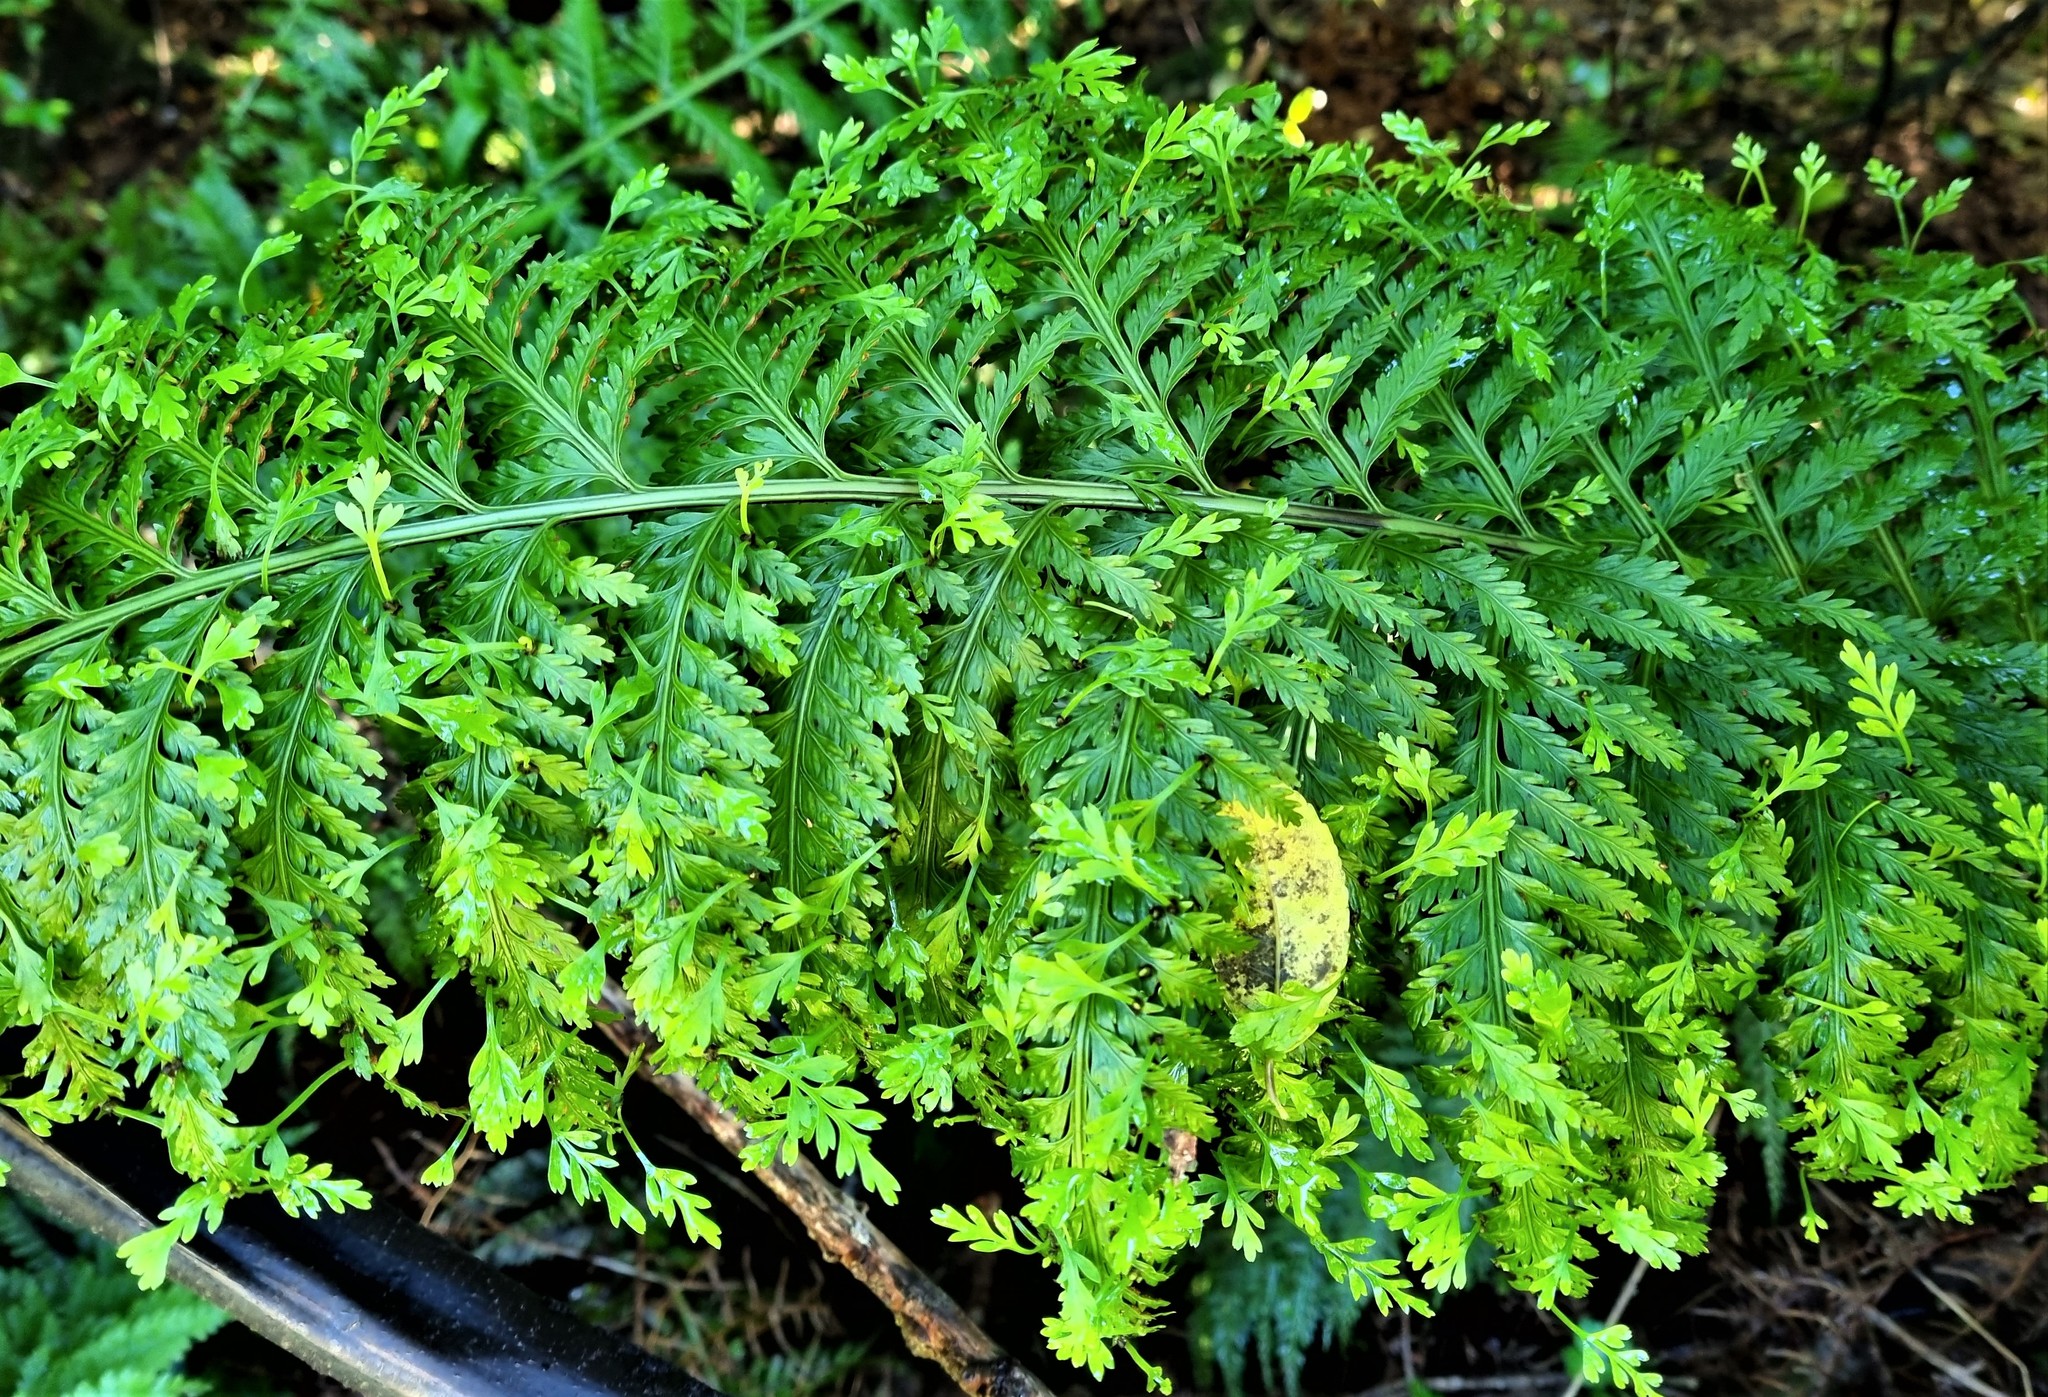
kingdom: Plantae
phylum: Tracheophyta
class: Polypodiopsida
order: Polypodiales
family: Aspleniaceae
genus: Asplenium
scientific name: Asplenium bulbiferum
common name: Mother fern
